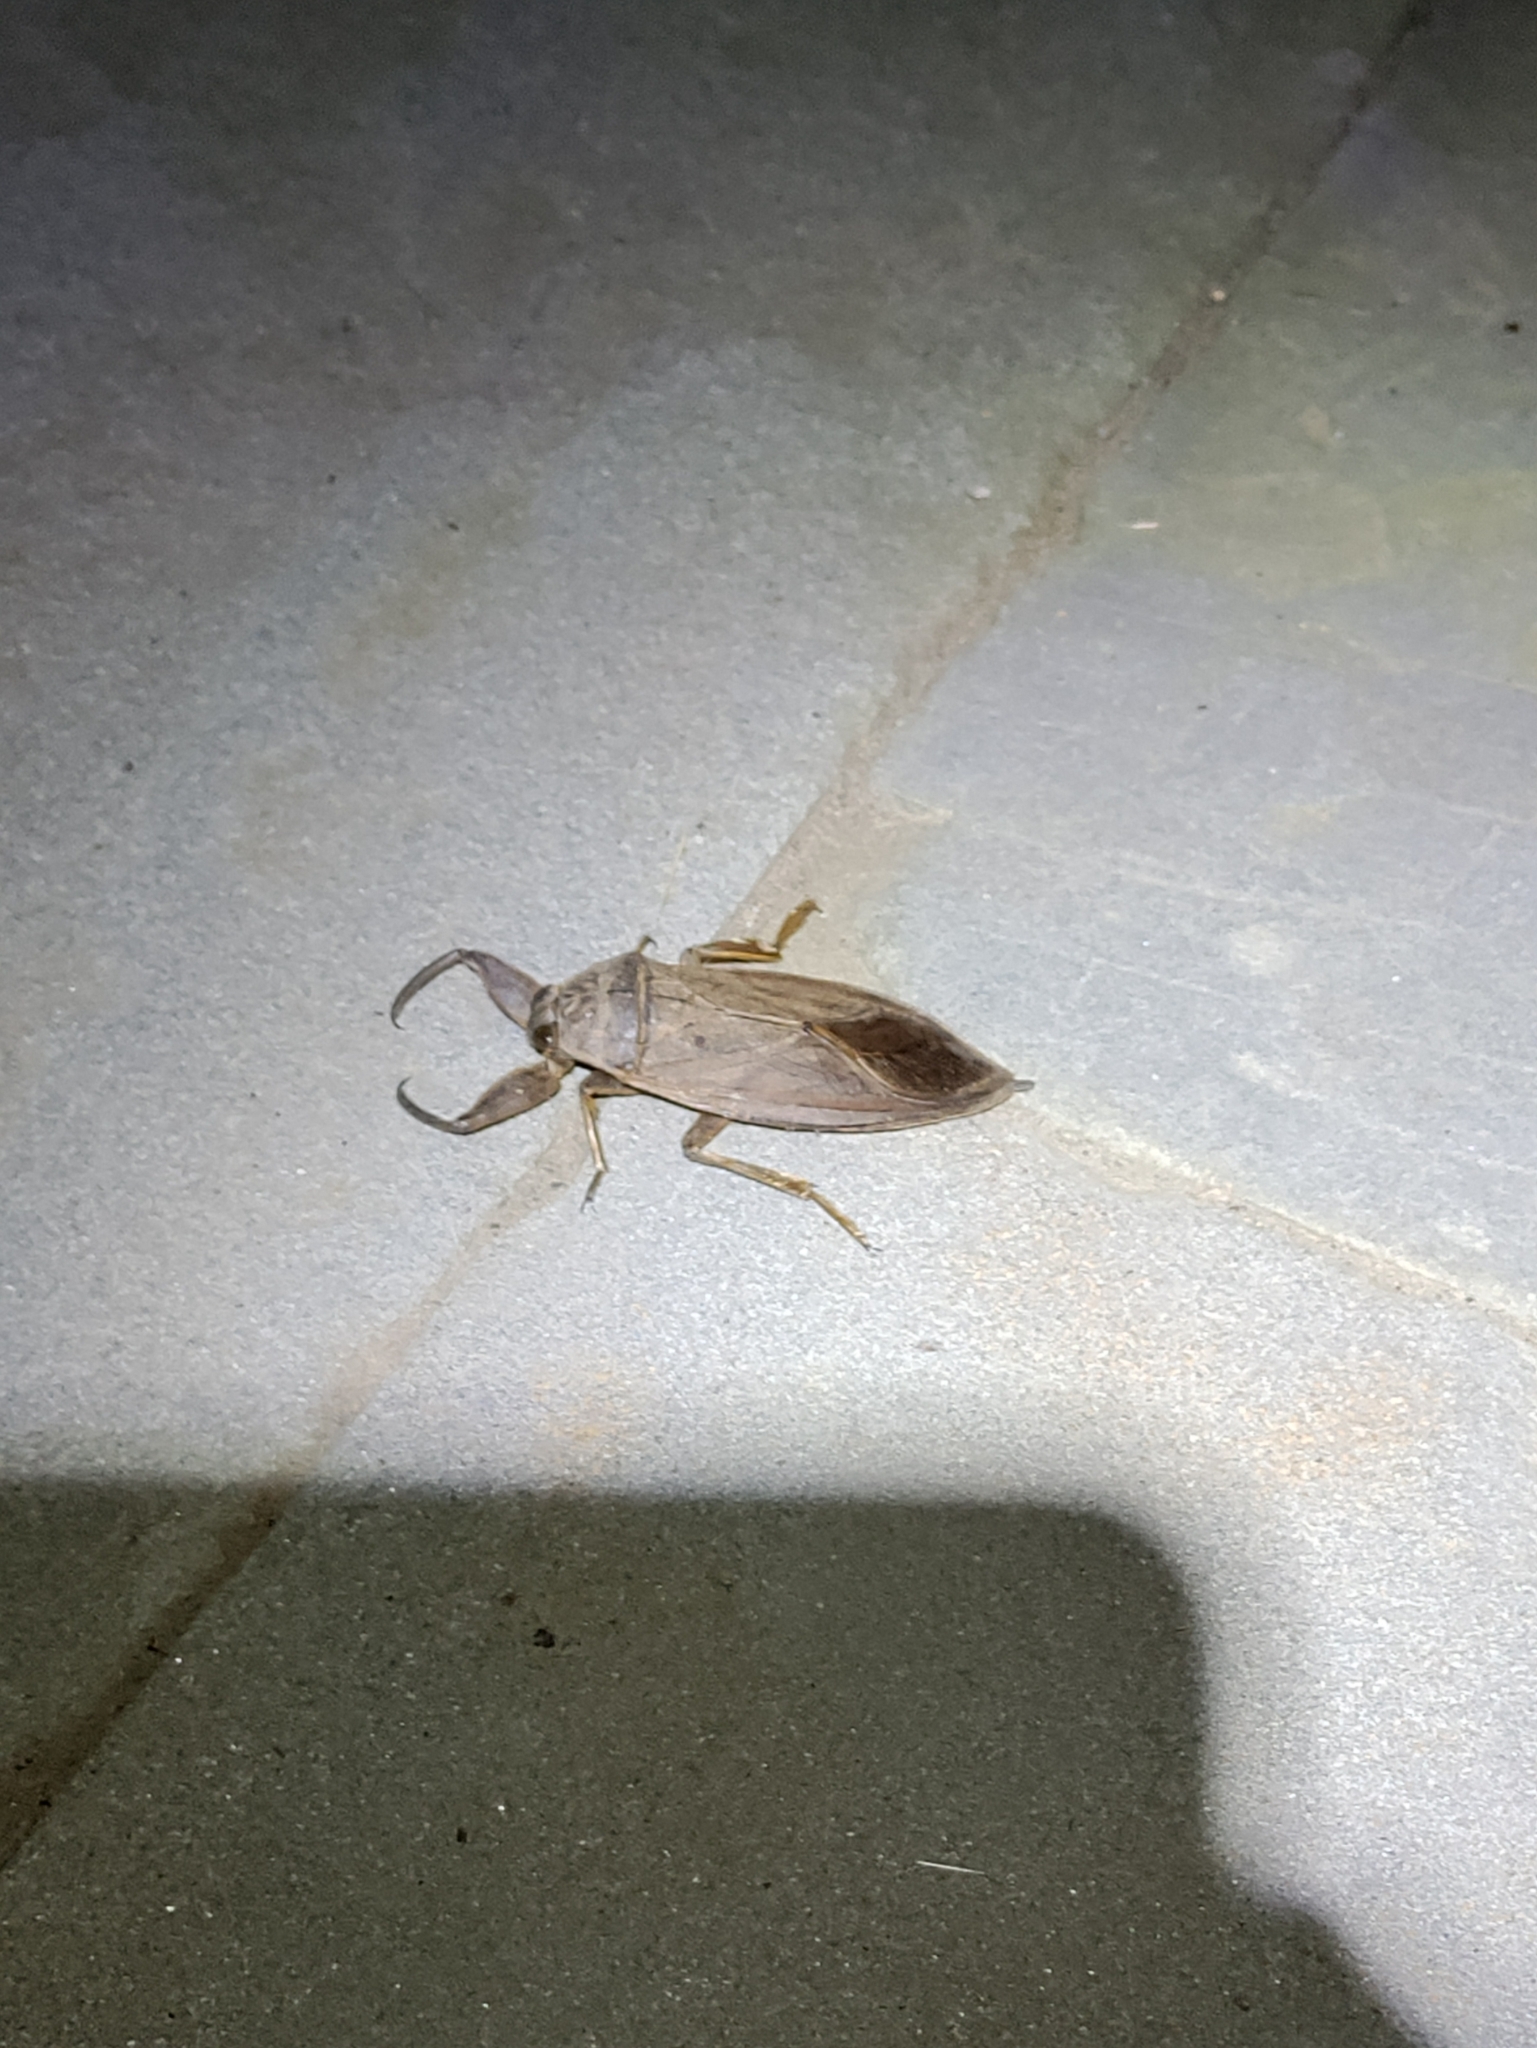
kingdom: Animalia
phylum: Arthropoda
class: Insecta
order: Hemiptera
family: Belostomatidae
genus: Lethocerus
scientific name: Lethocerus americanus
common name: Giant water bug
